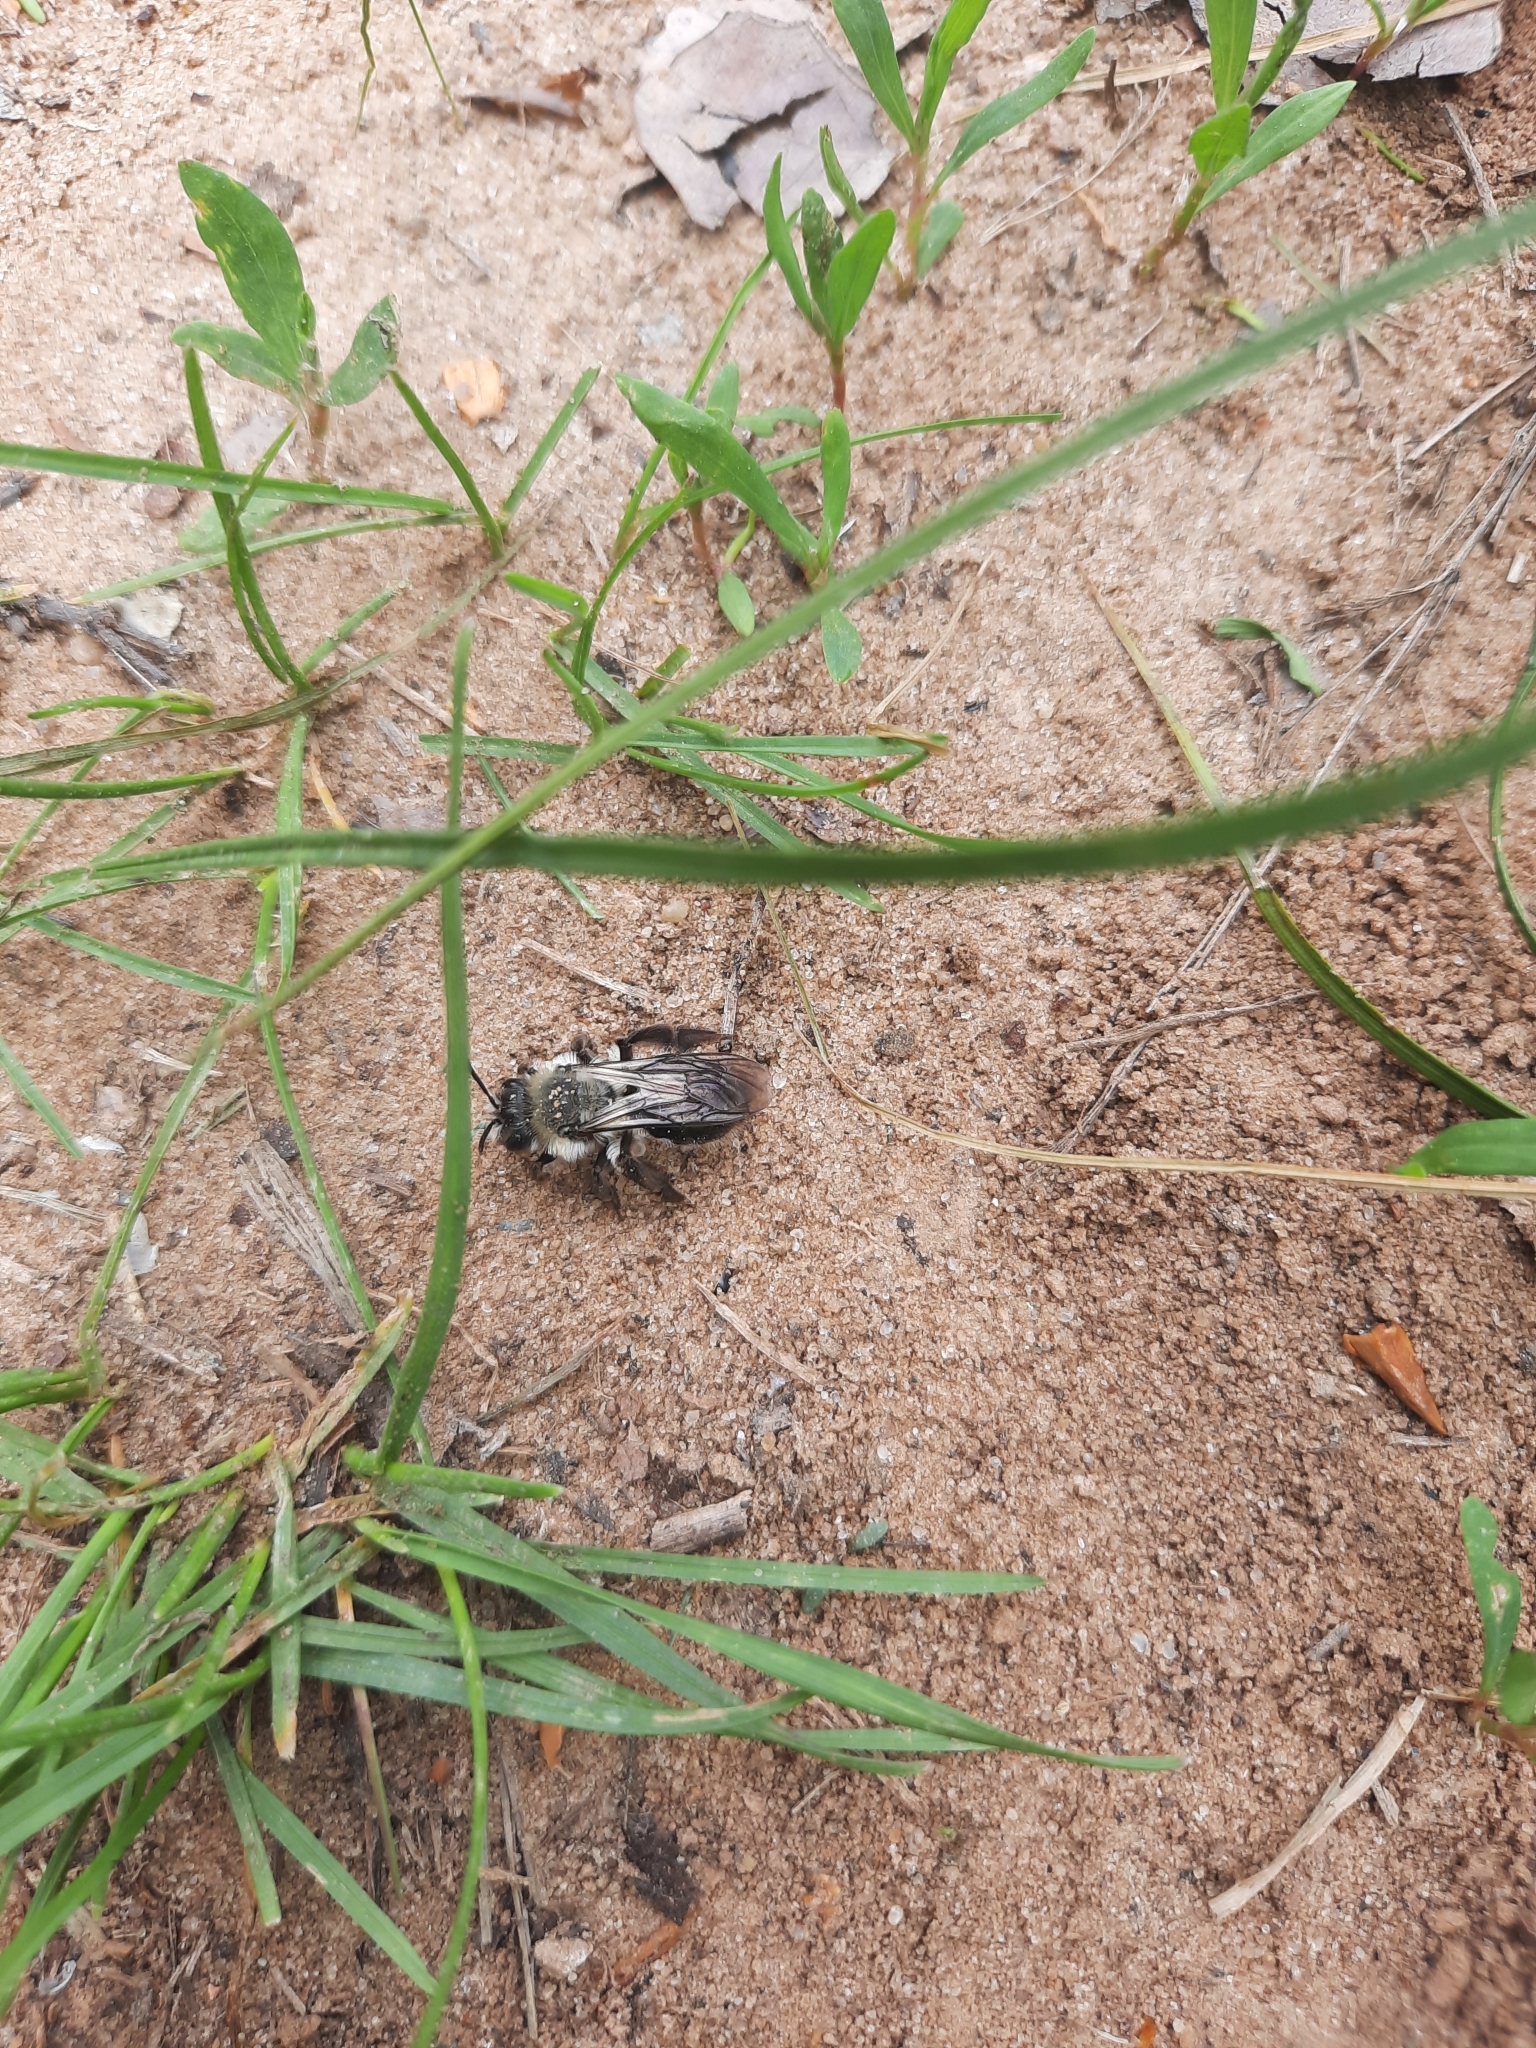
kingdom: Animalia
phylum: Arthropoda
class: Insecta
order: Hymenoptera
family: Andrenidae
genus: Andrena
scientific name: Andrena vaga
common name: Grey-backed mining bee
